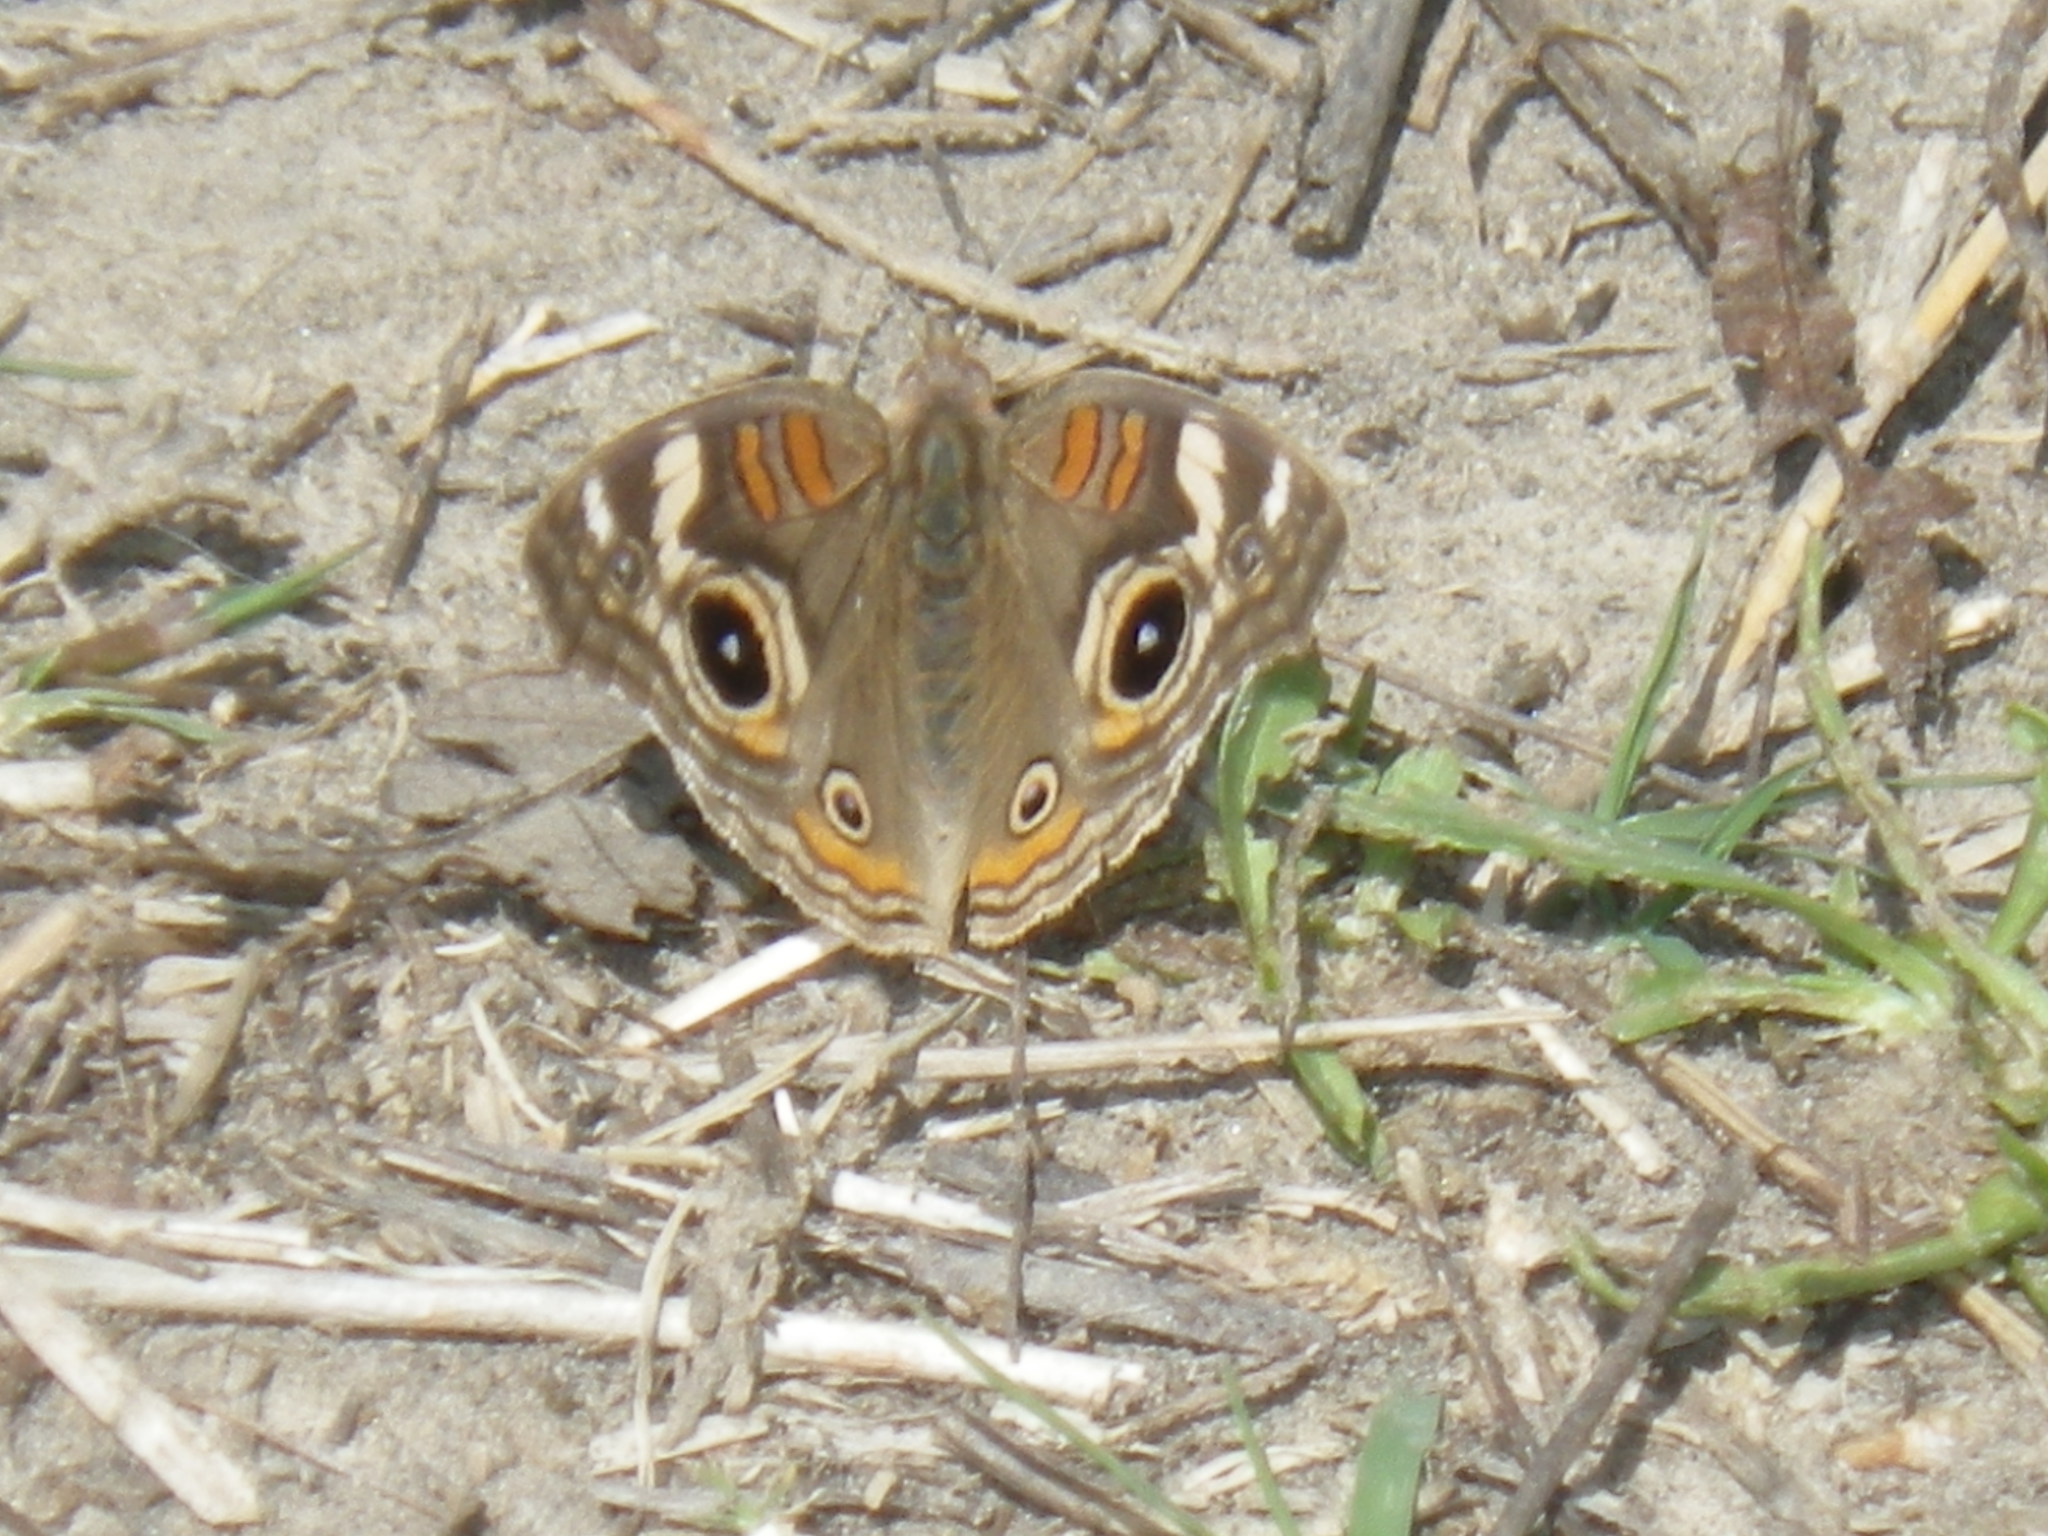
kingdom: Animalia
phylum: Arthropoda
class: Insecta
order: Lepidoptera
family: Nymphalidae
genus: Junonia
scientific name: Junonia grisea
